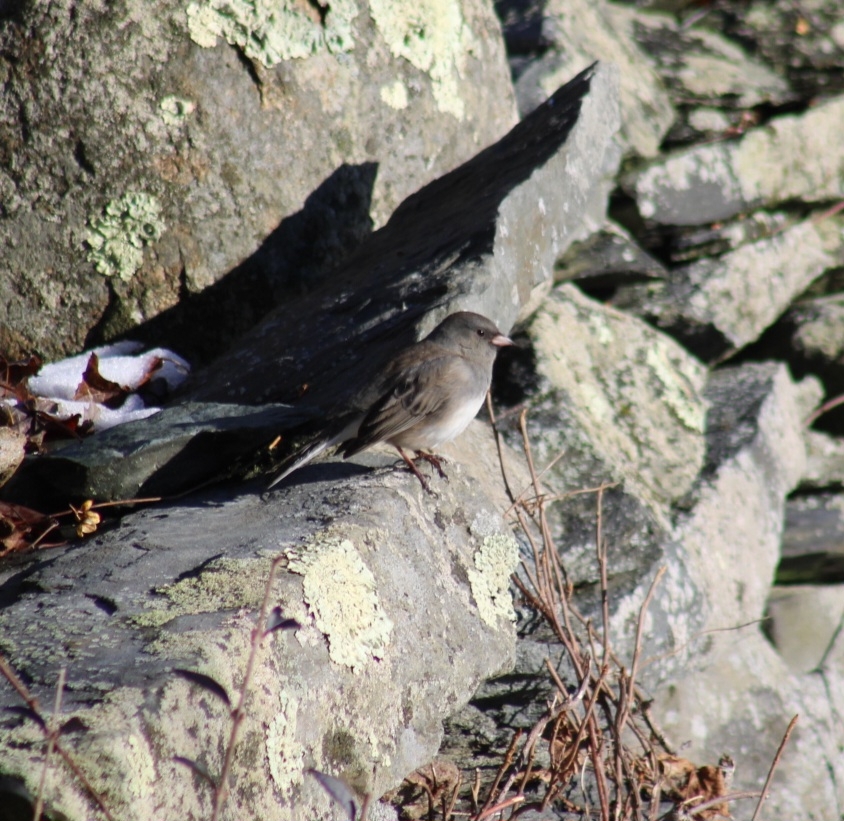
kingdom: Animalia
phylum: Chordata
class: Aves
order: Passeriformes
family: Passerellidae
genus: Junco
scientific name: Junco hyemalis
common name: Dark-eyed junco
